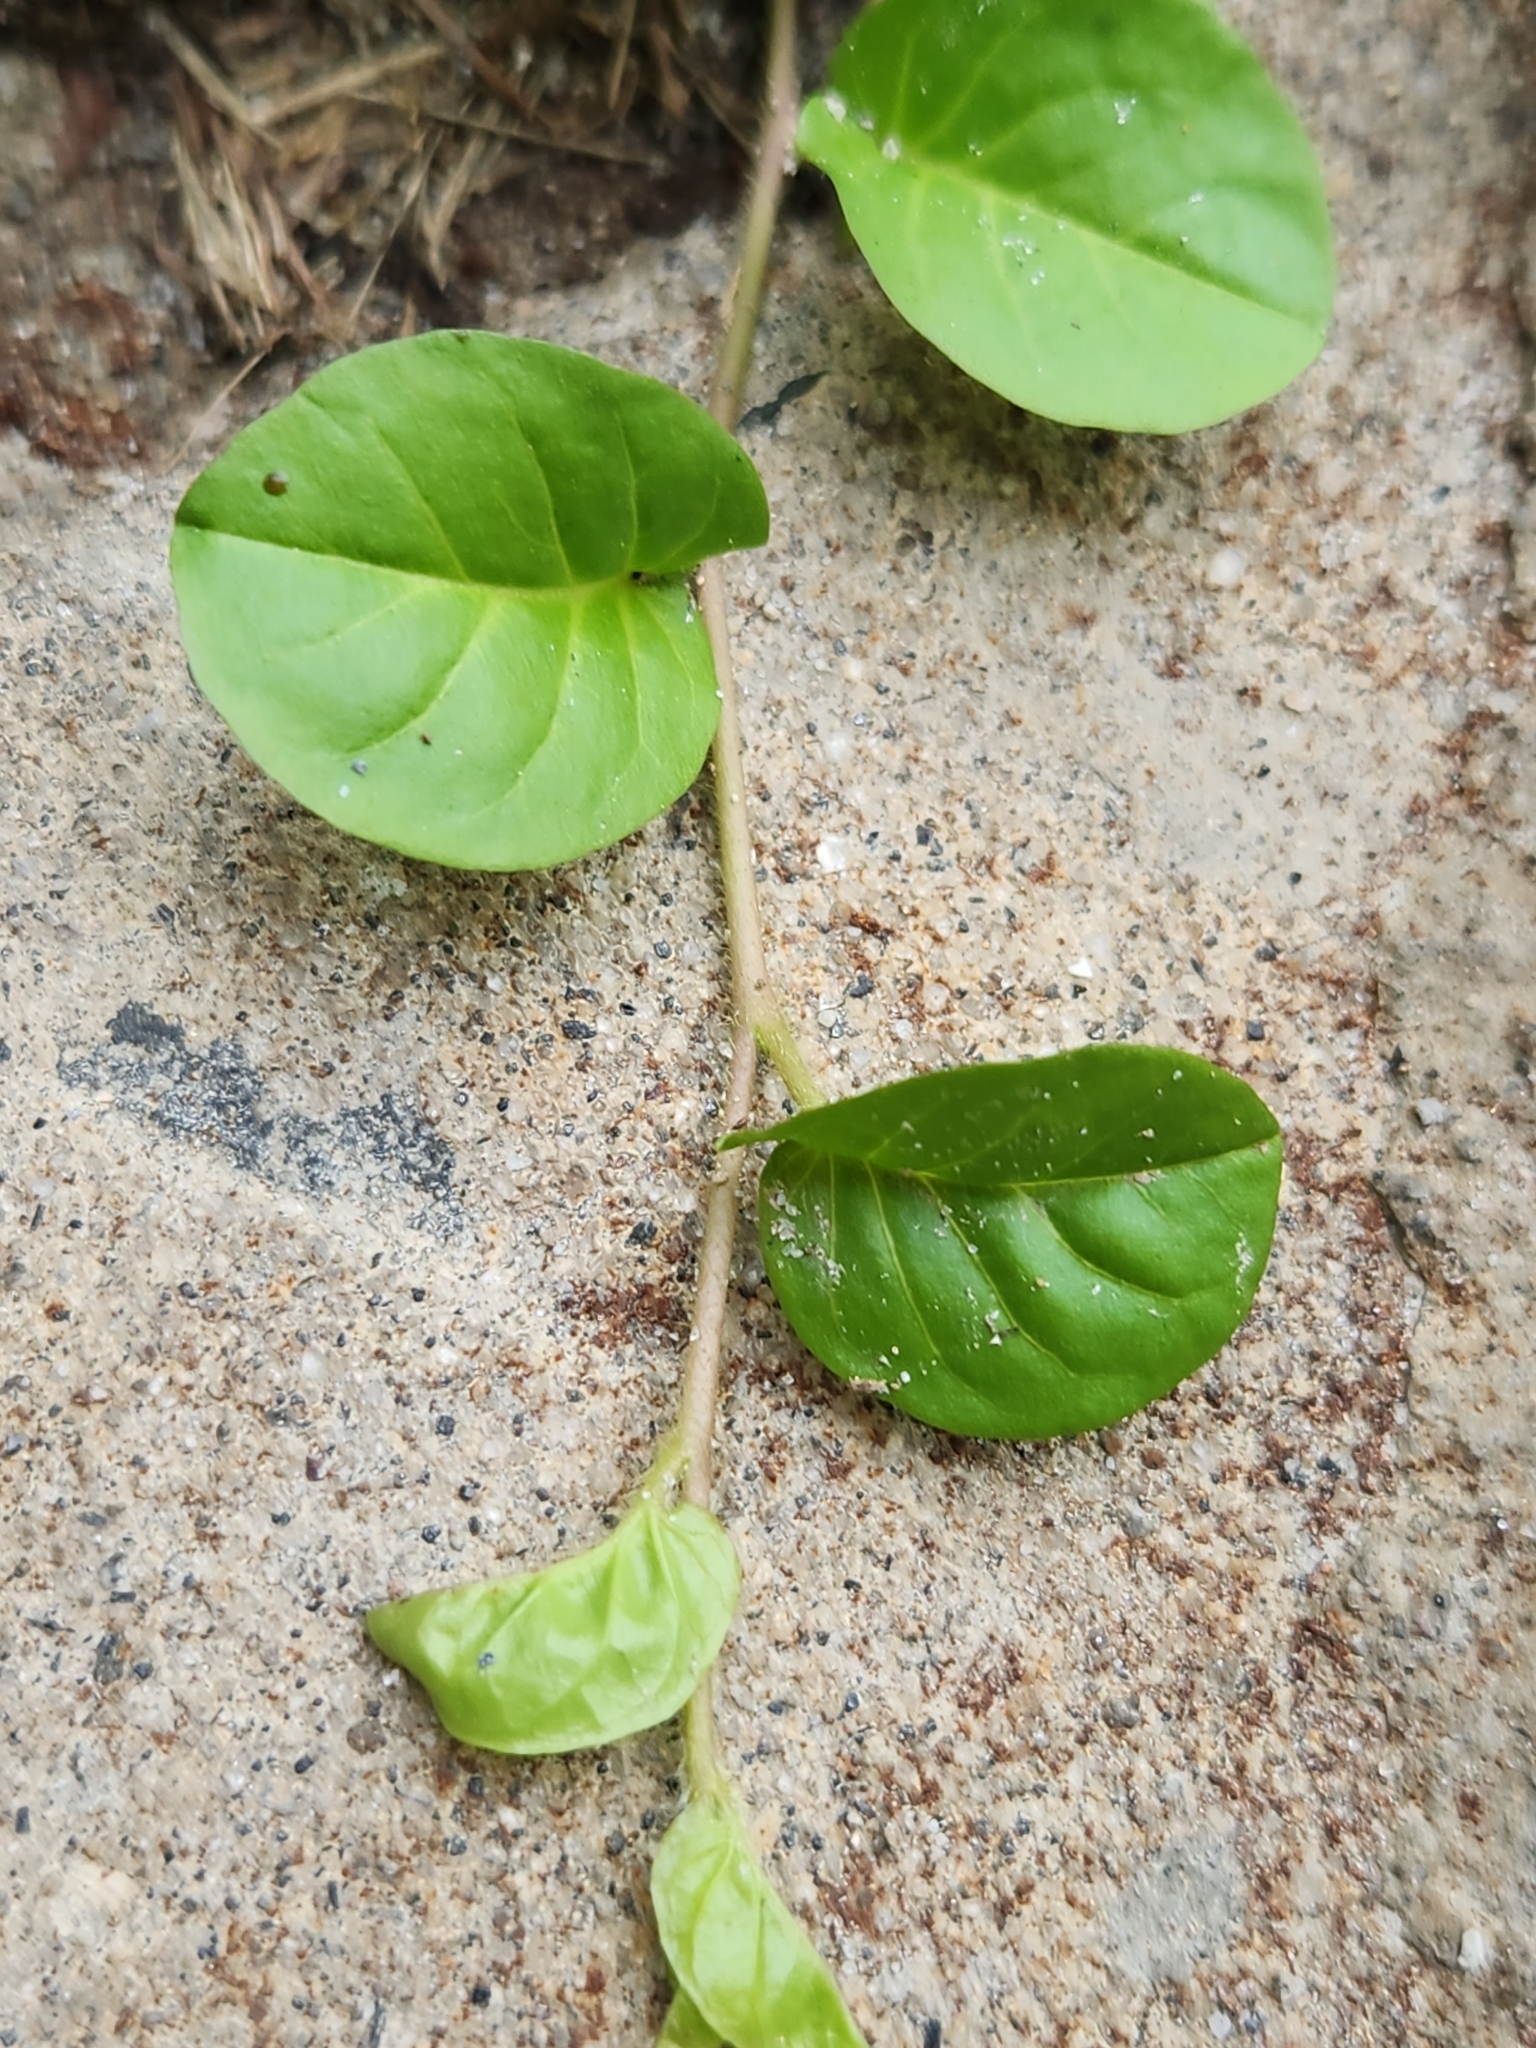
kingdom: Plantae
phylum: Tracheophyta
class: Magnoliopsida
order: Solanales
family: Convolvulaceae
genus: Evolvulus
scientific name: Evolvulus nummularius
